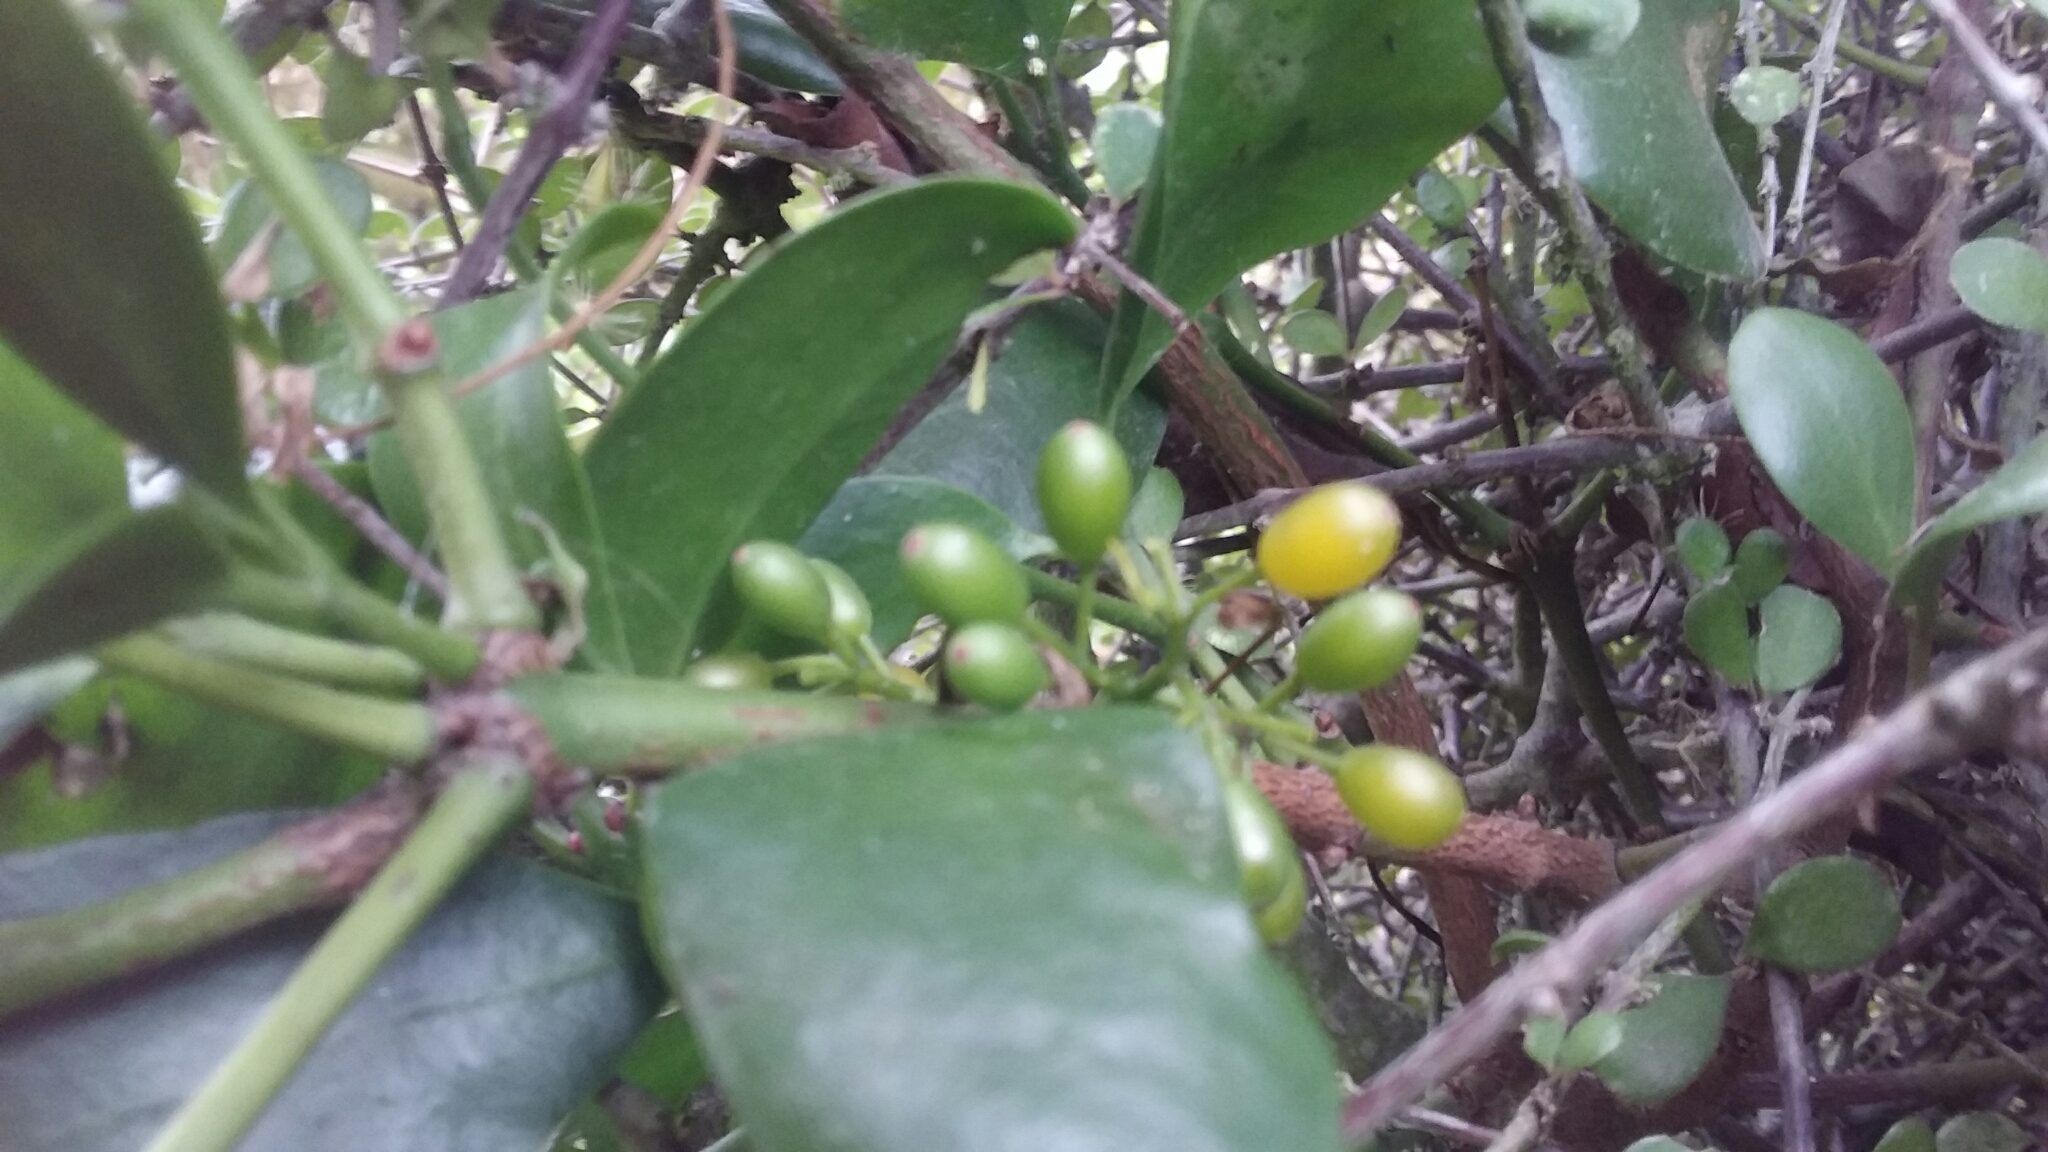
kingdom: Plantae
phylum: Tracheophyta
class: Magnoliopsida
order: Santalales
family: Loranthaceae
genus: Ileostylus
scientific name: Ileostylus micranthus
